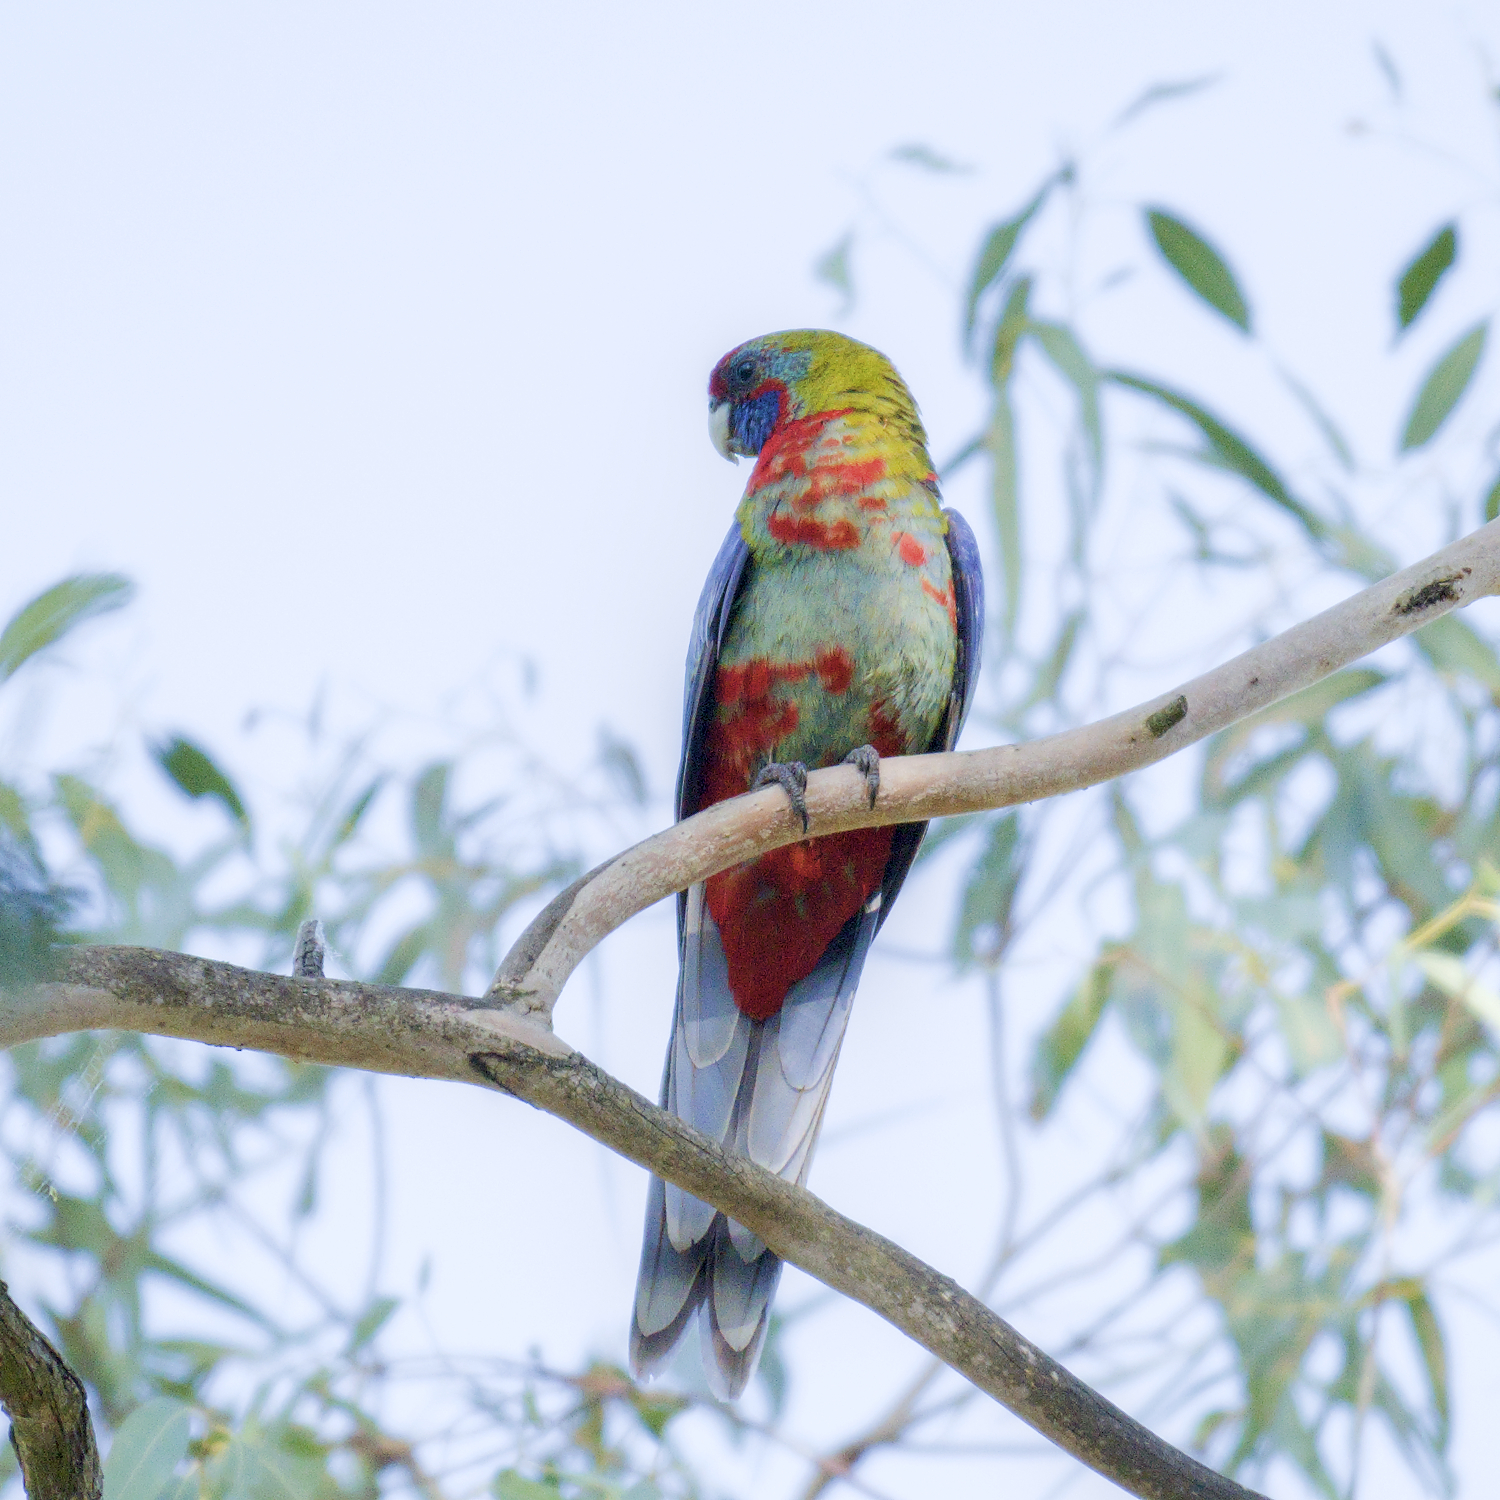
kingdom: Animalia
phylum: Chordata
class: Aves
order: Psittaciformes
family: Psittacidae
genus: Platycercus
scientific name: Platycercus elegans
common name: Crimson rosella
